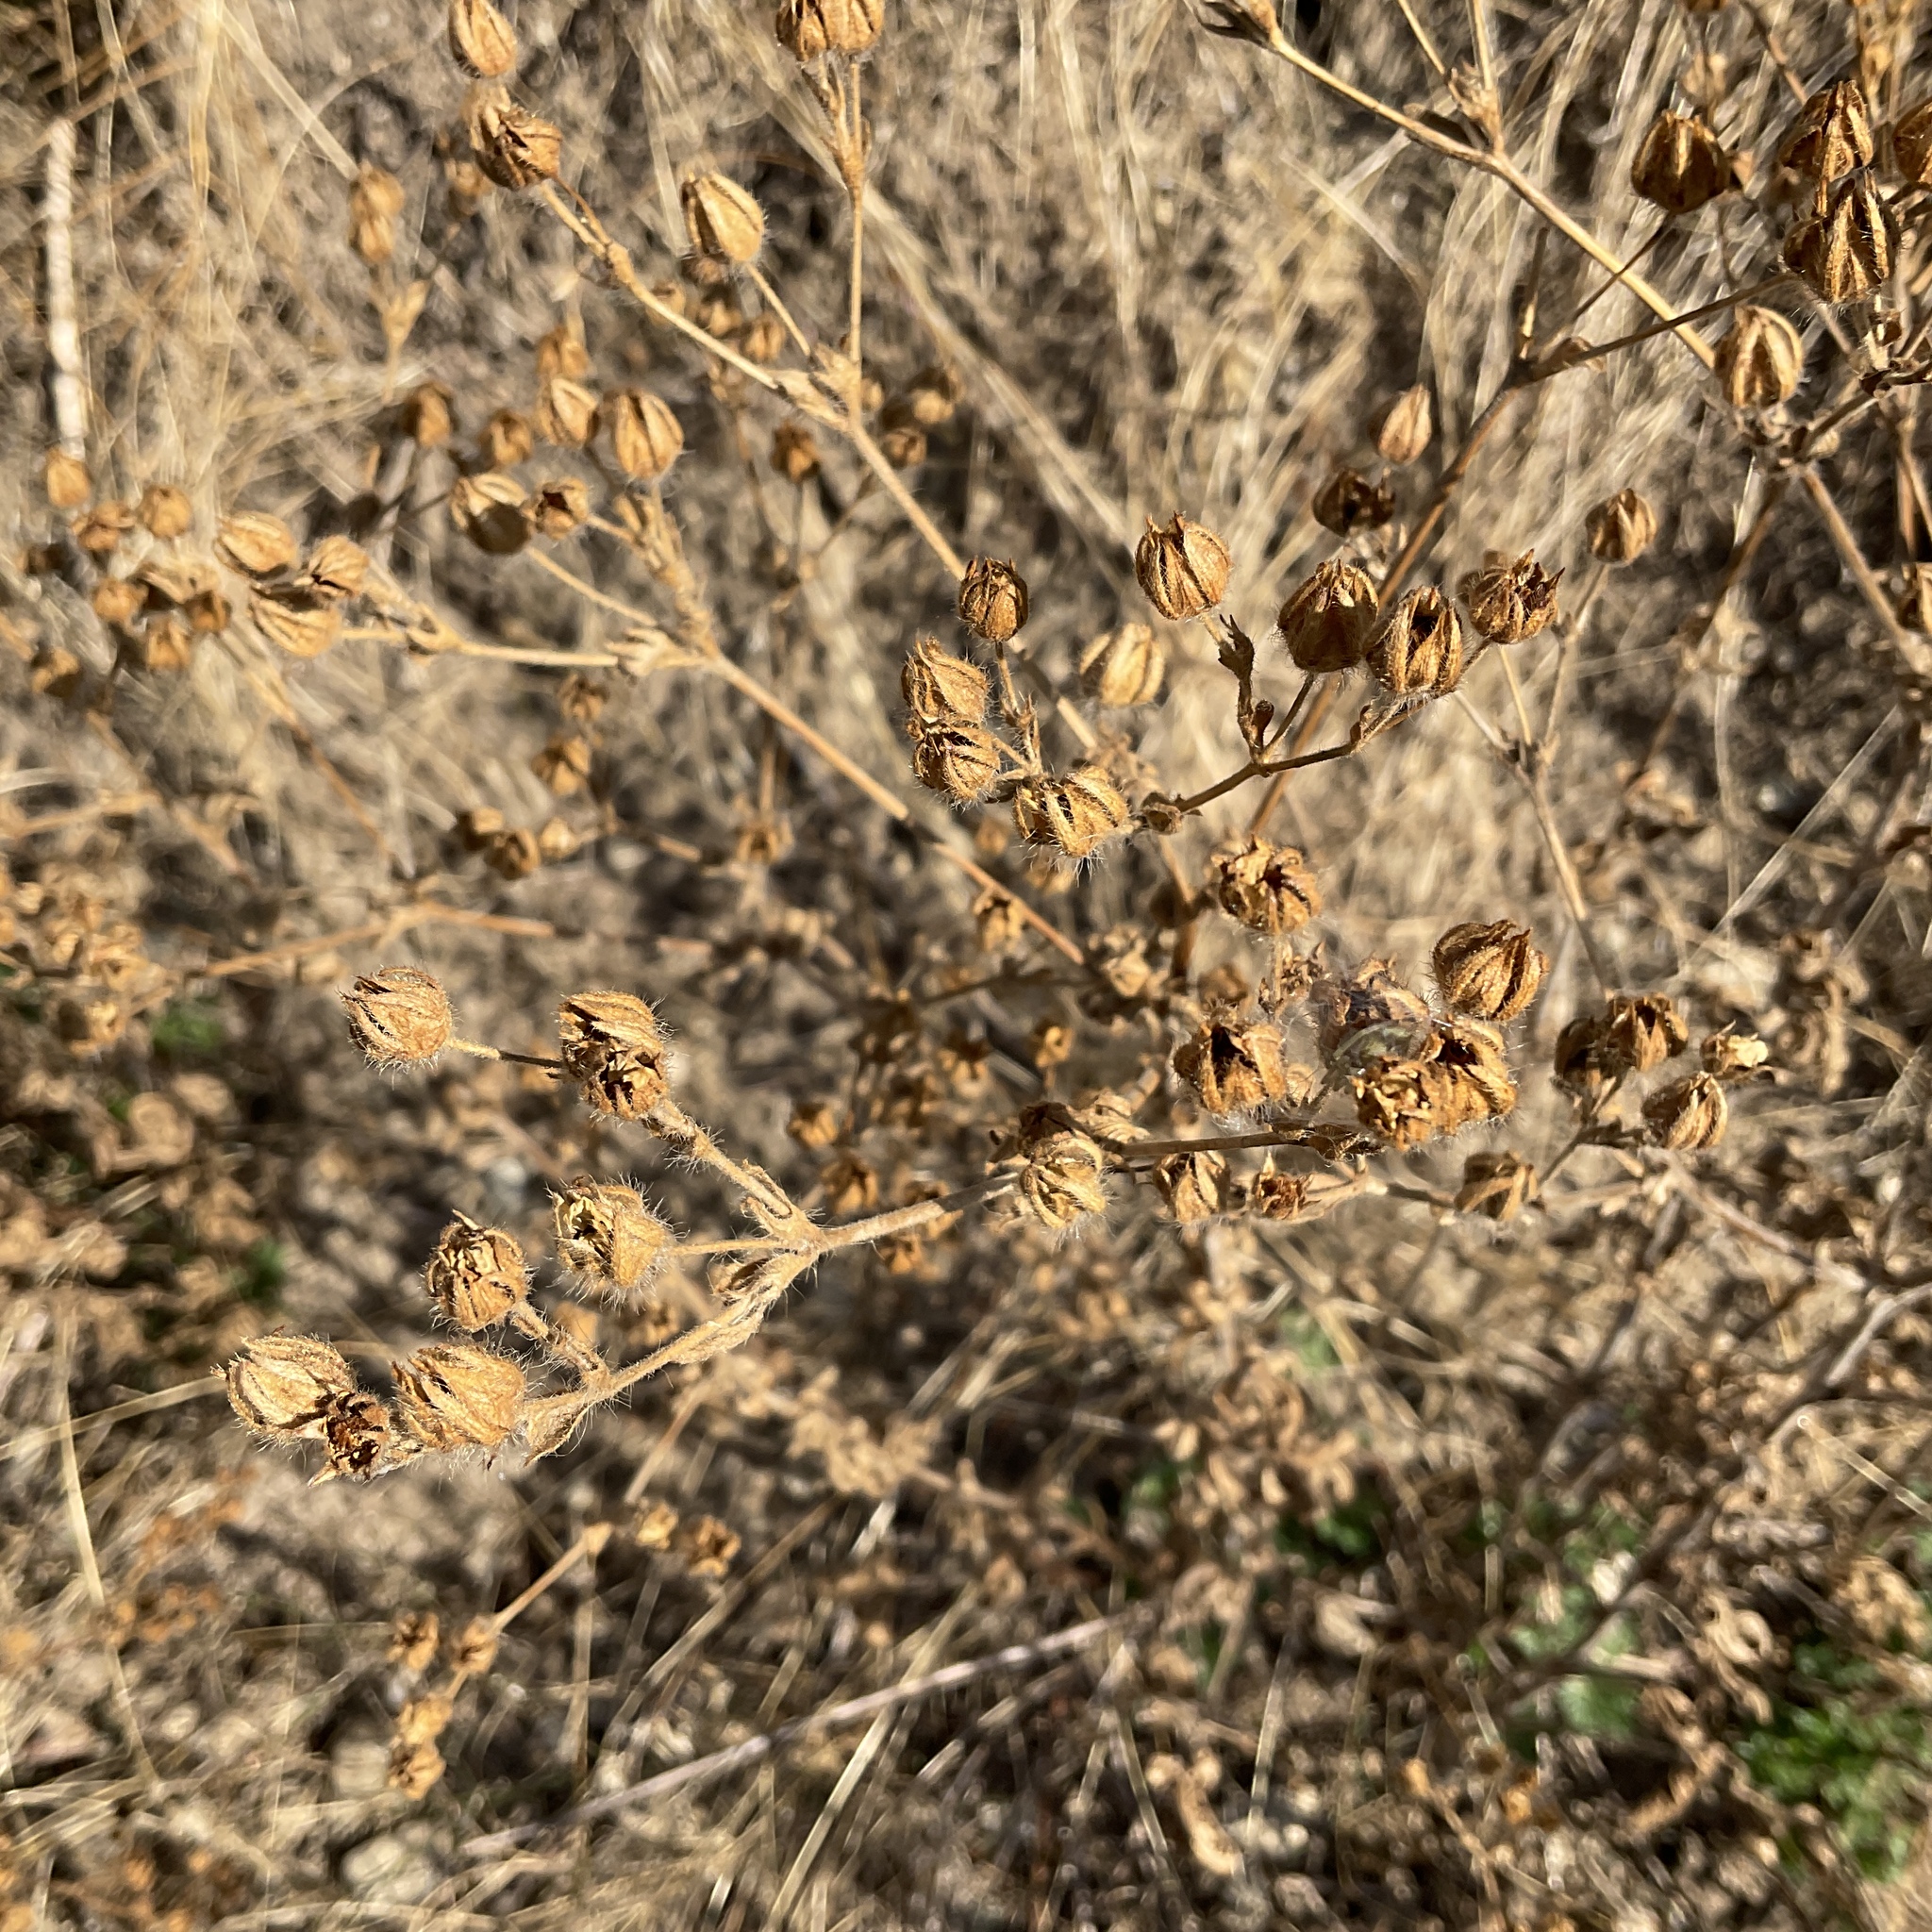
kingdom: Plantae
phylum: Tracheophyta
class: Magnoliopsida
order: Rosales
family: Rosaceae
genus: Potentilla
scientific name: Potentilla recta
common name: Sulphur cinquefoil
